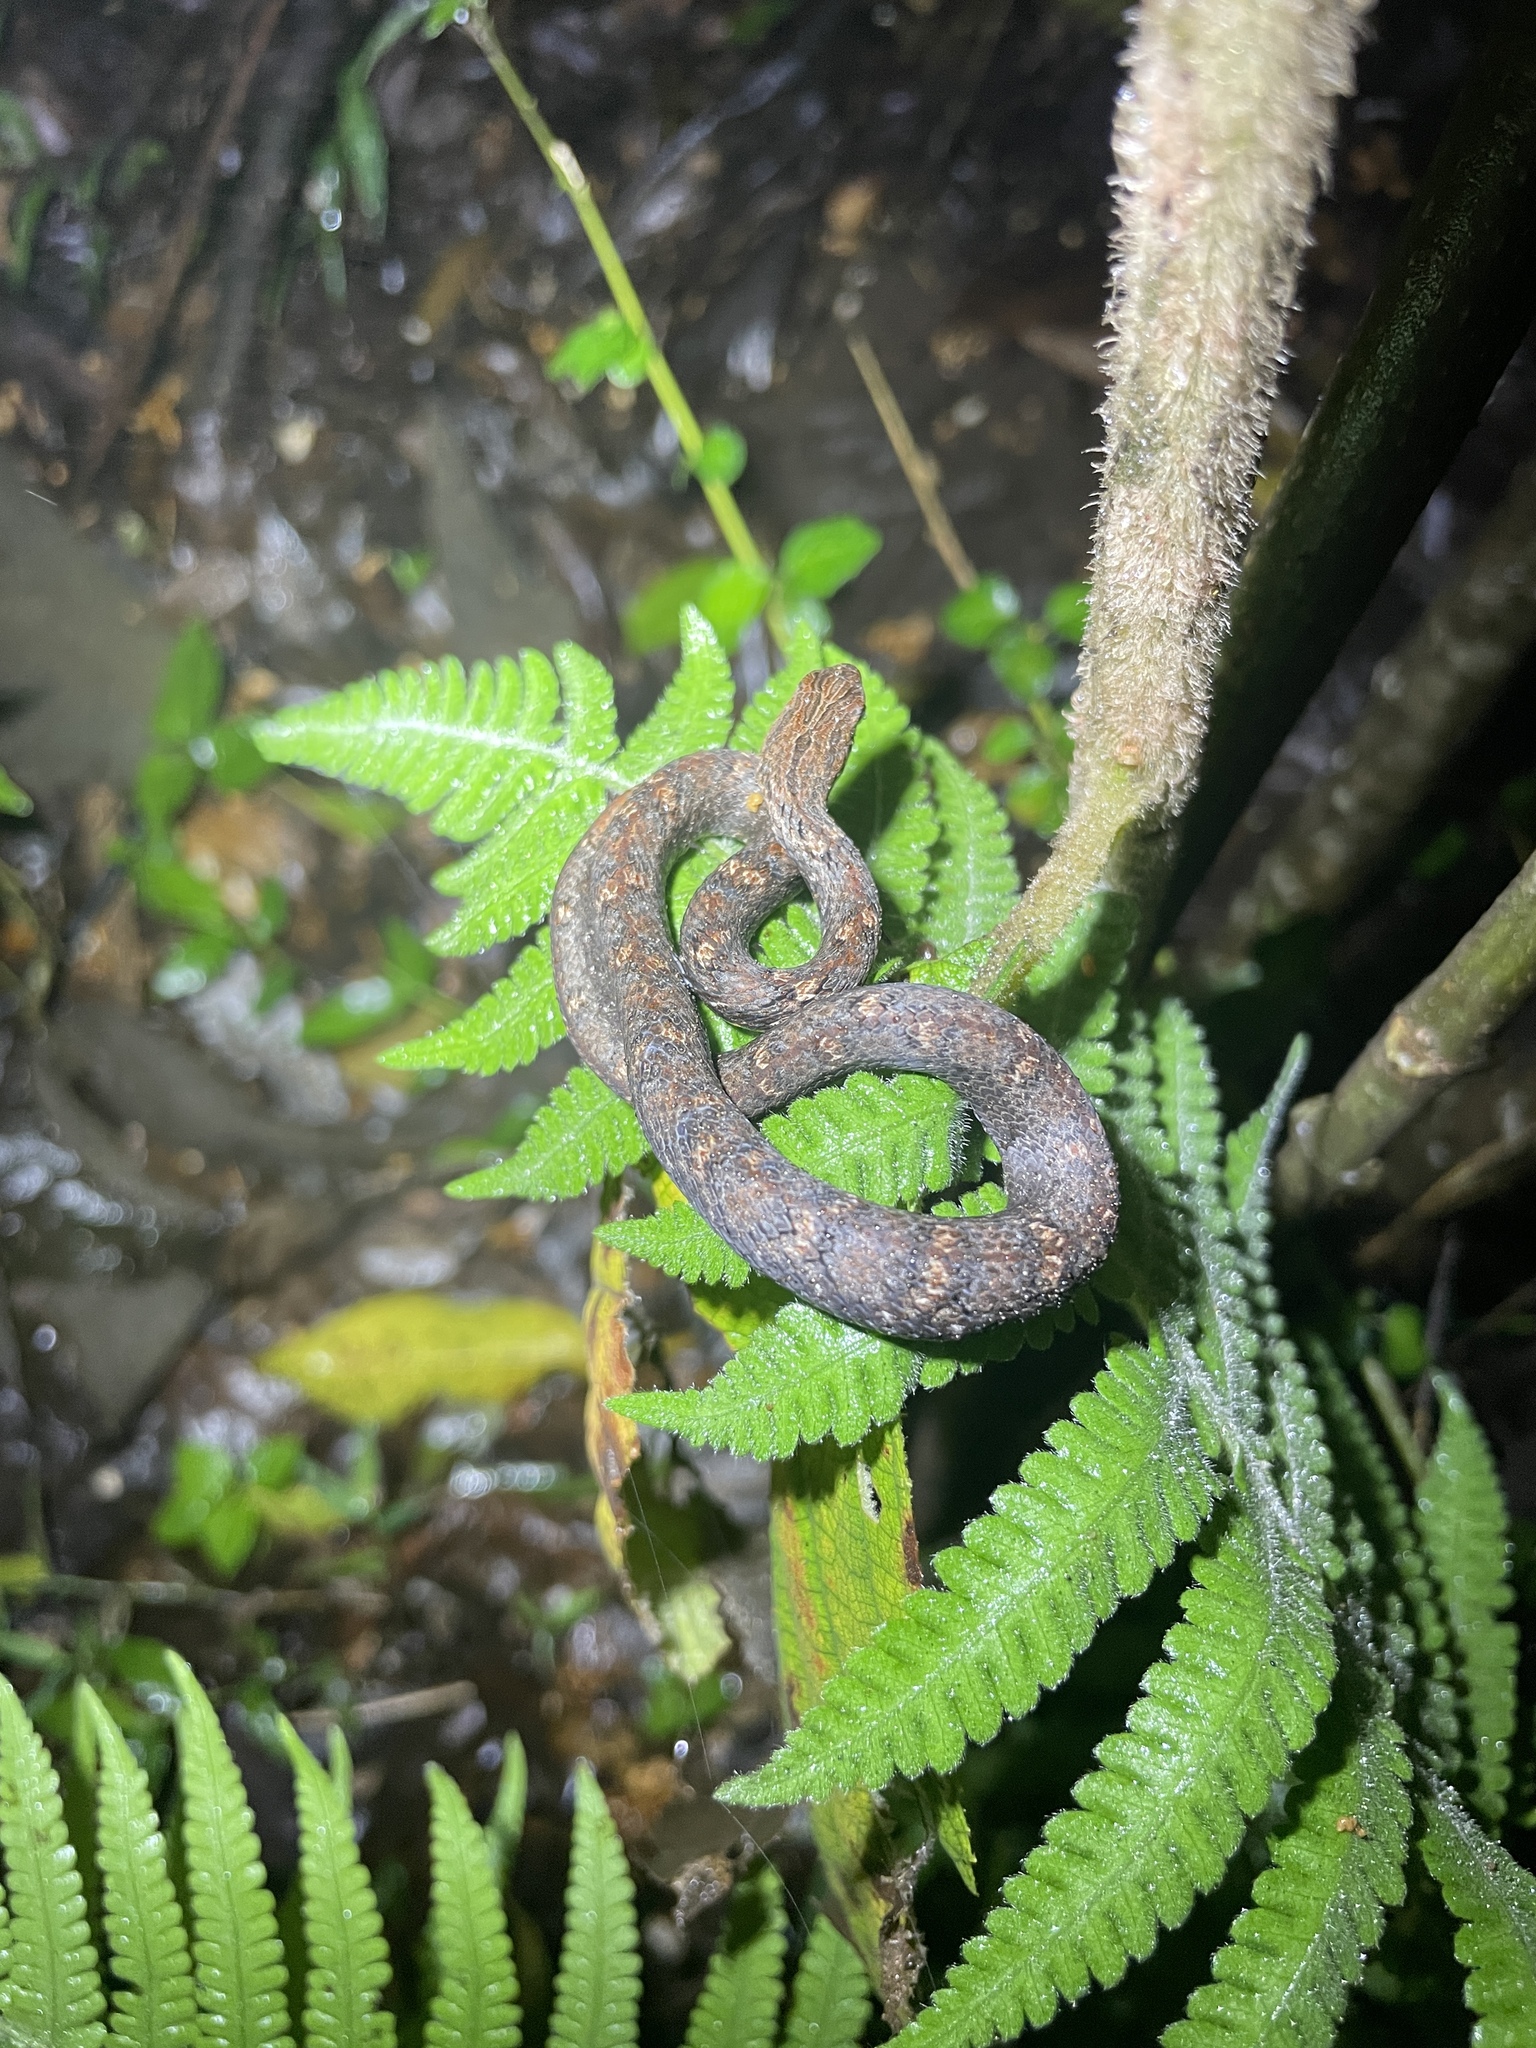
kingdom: Animalia
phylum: Chordata
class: Squamata
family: Pseudaspididae
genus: Psammodynastes
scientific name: Psammodynastes pulverulentus
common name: Common mock viper
